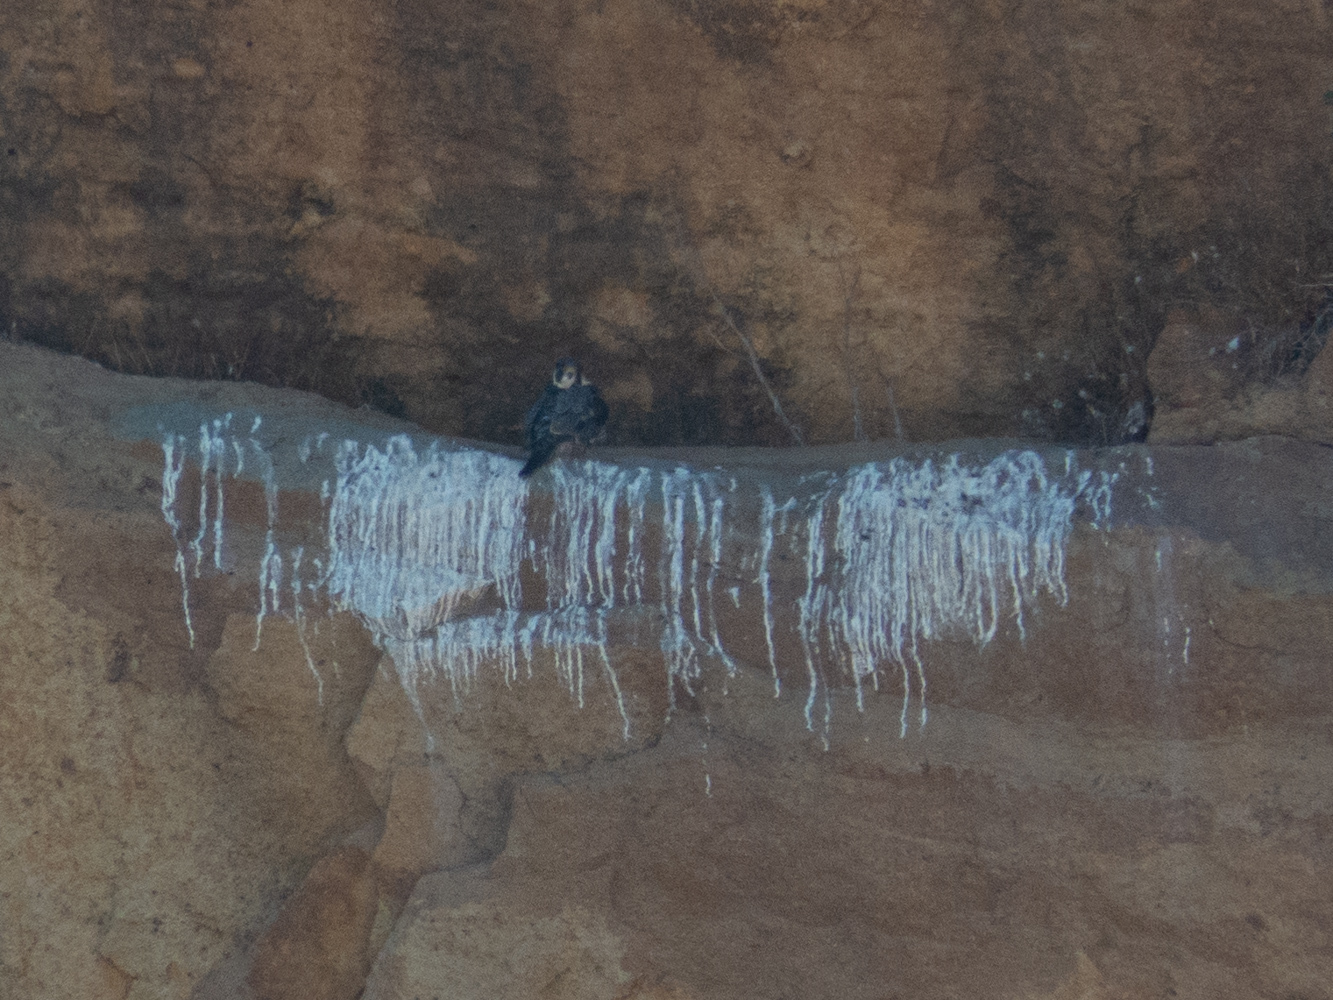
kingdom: Animalia
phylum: Chordata
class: Aves
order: Falconiformes
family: Falconidae
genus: Falco
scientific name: Falco peregrinus
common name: Peregrine falcon
